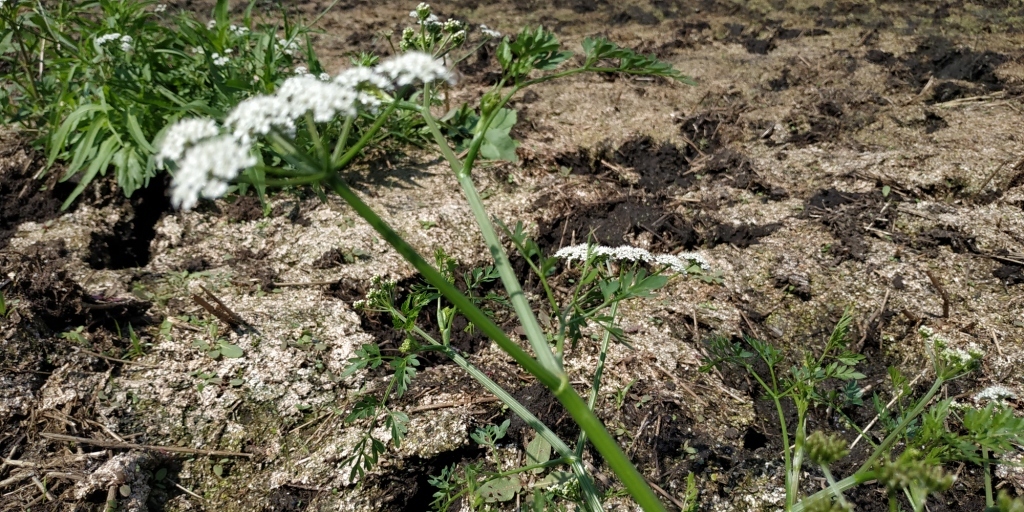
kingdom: Plantae
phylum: Tracheophyta
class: Magnoliopsida
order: Apiales
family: Apiaceae
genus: Oenanthe
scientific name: Oenanthe aquatica
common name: Fine-leaved water-dropwort
